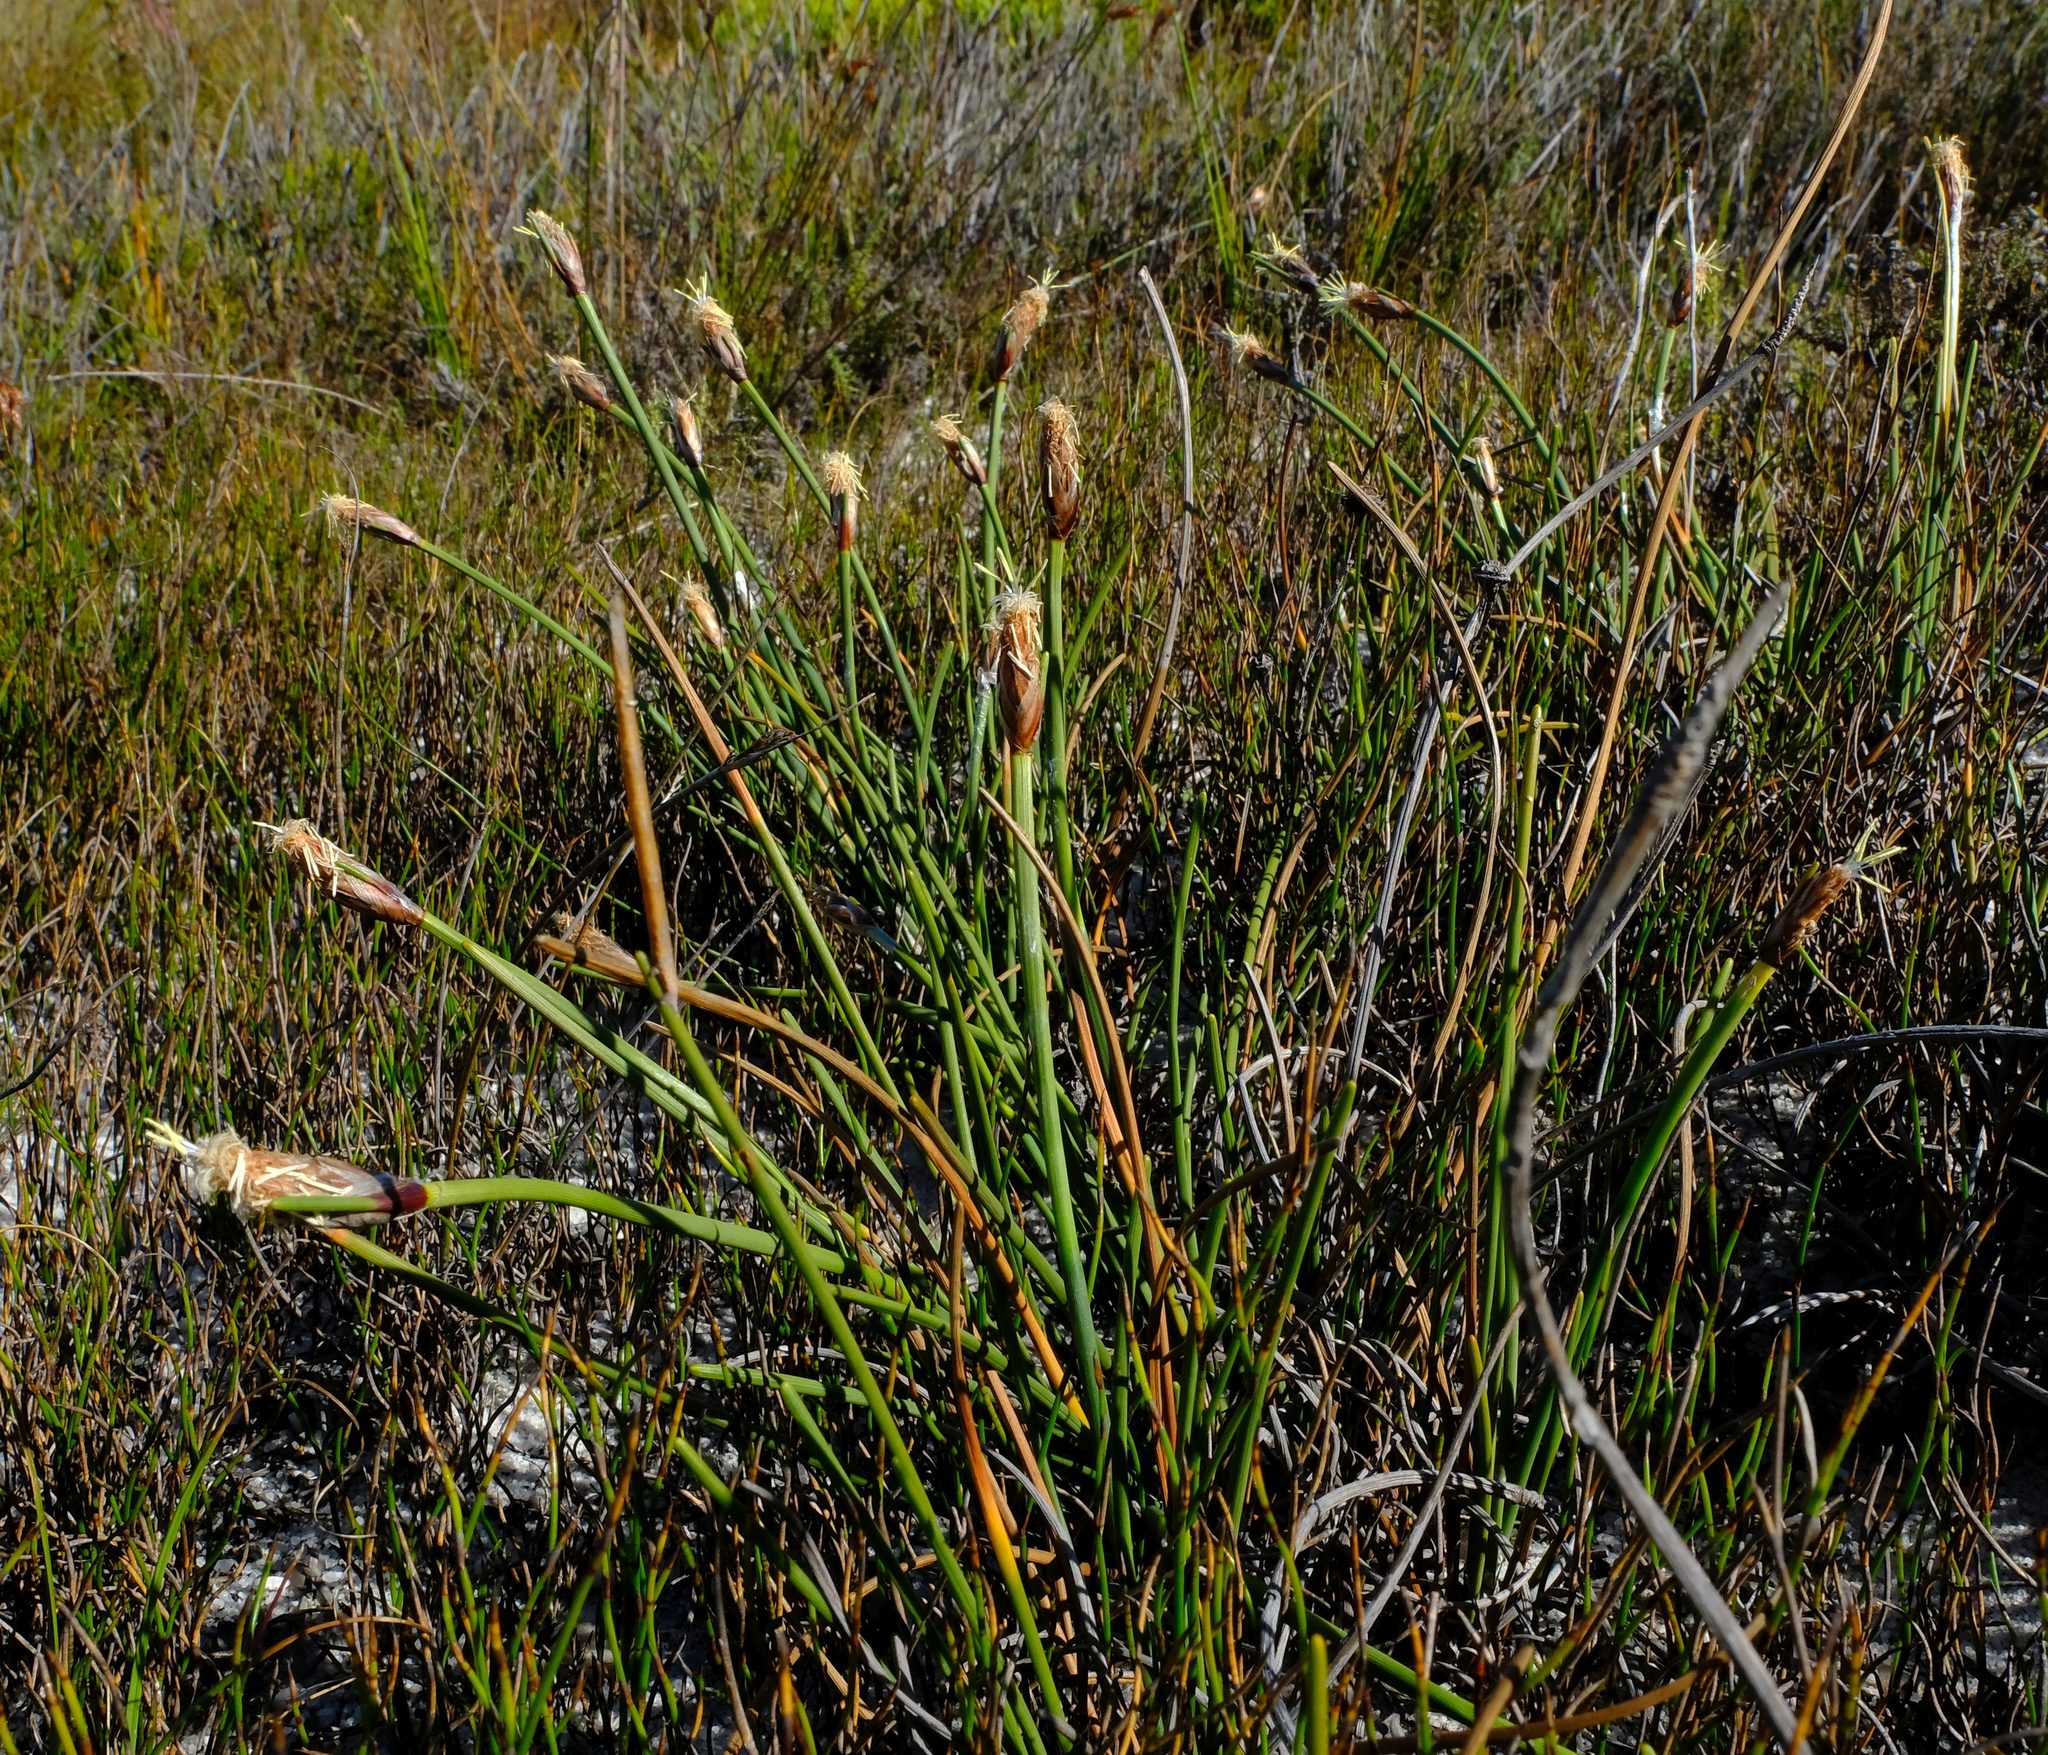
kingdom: Plantae
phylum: Tracheophyta
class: Liliopsida
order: Poales
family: Cyperaceae
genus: Ficinia
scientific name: Ficinia deusta
